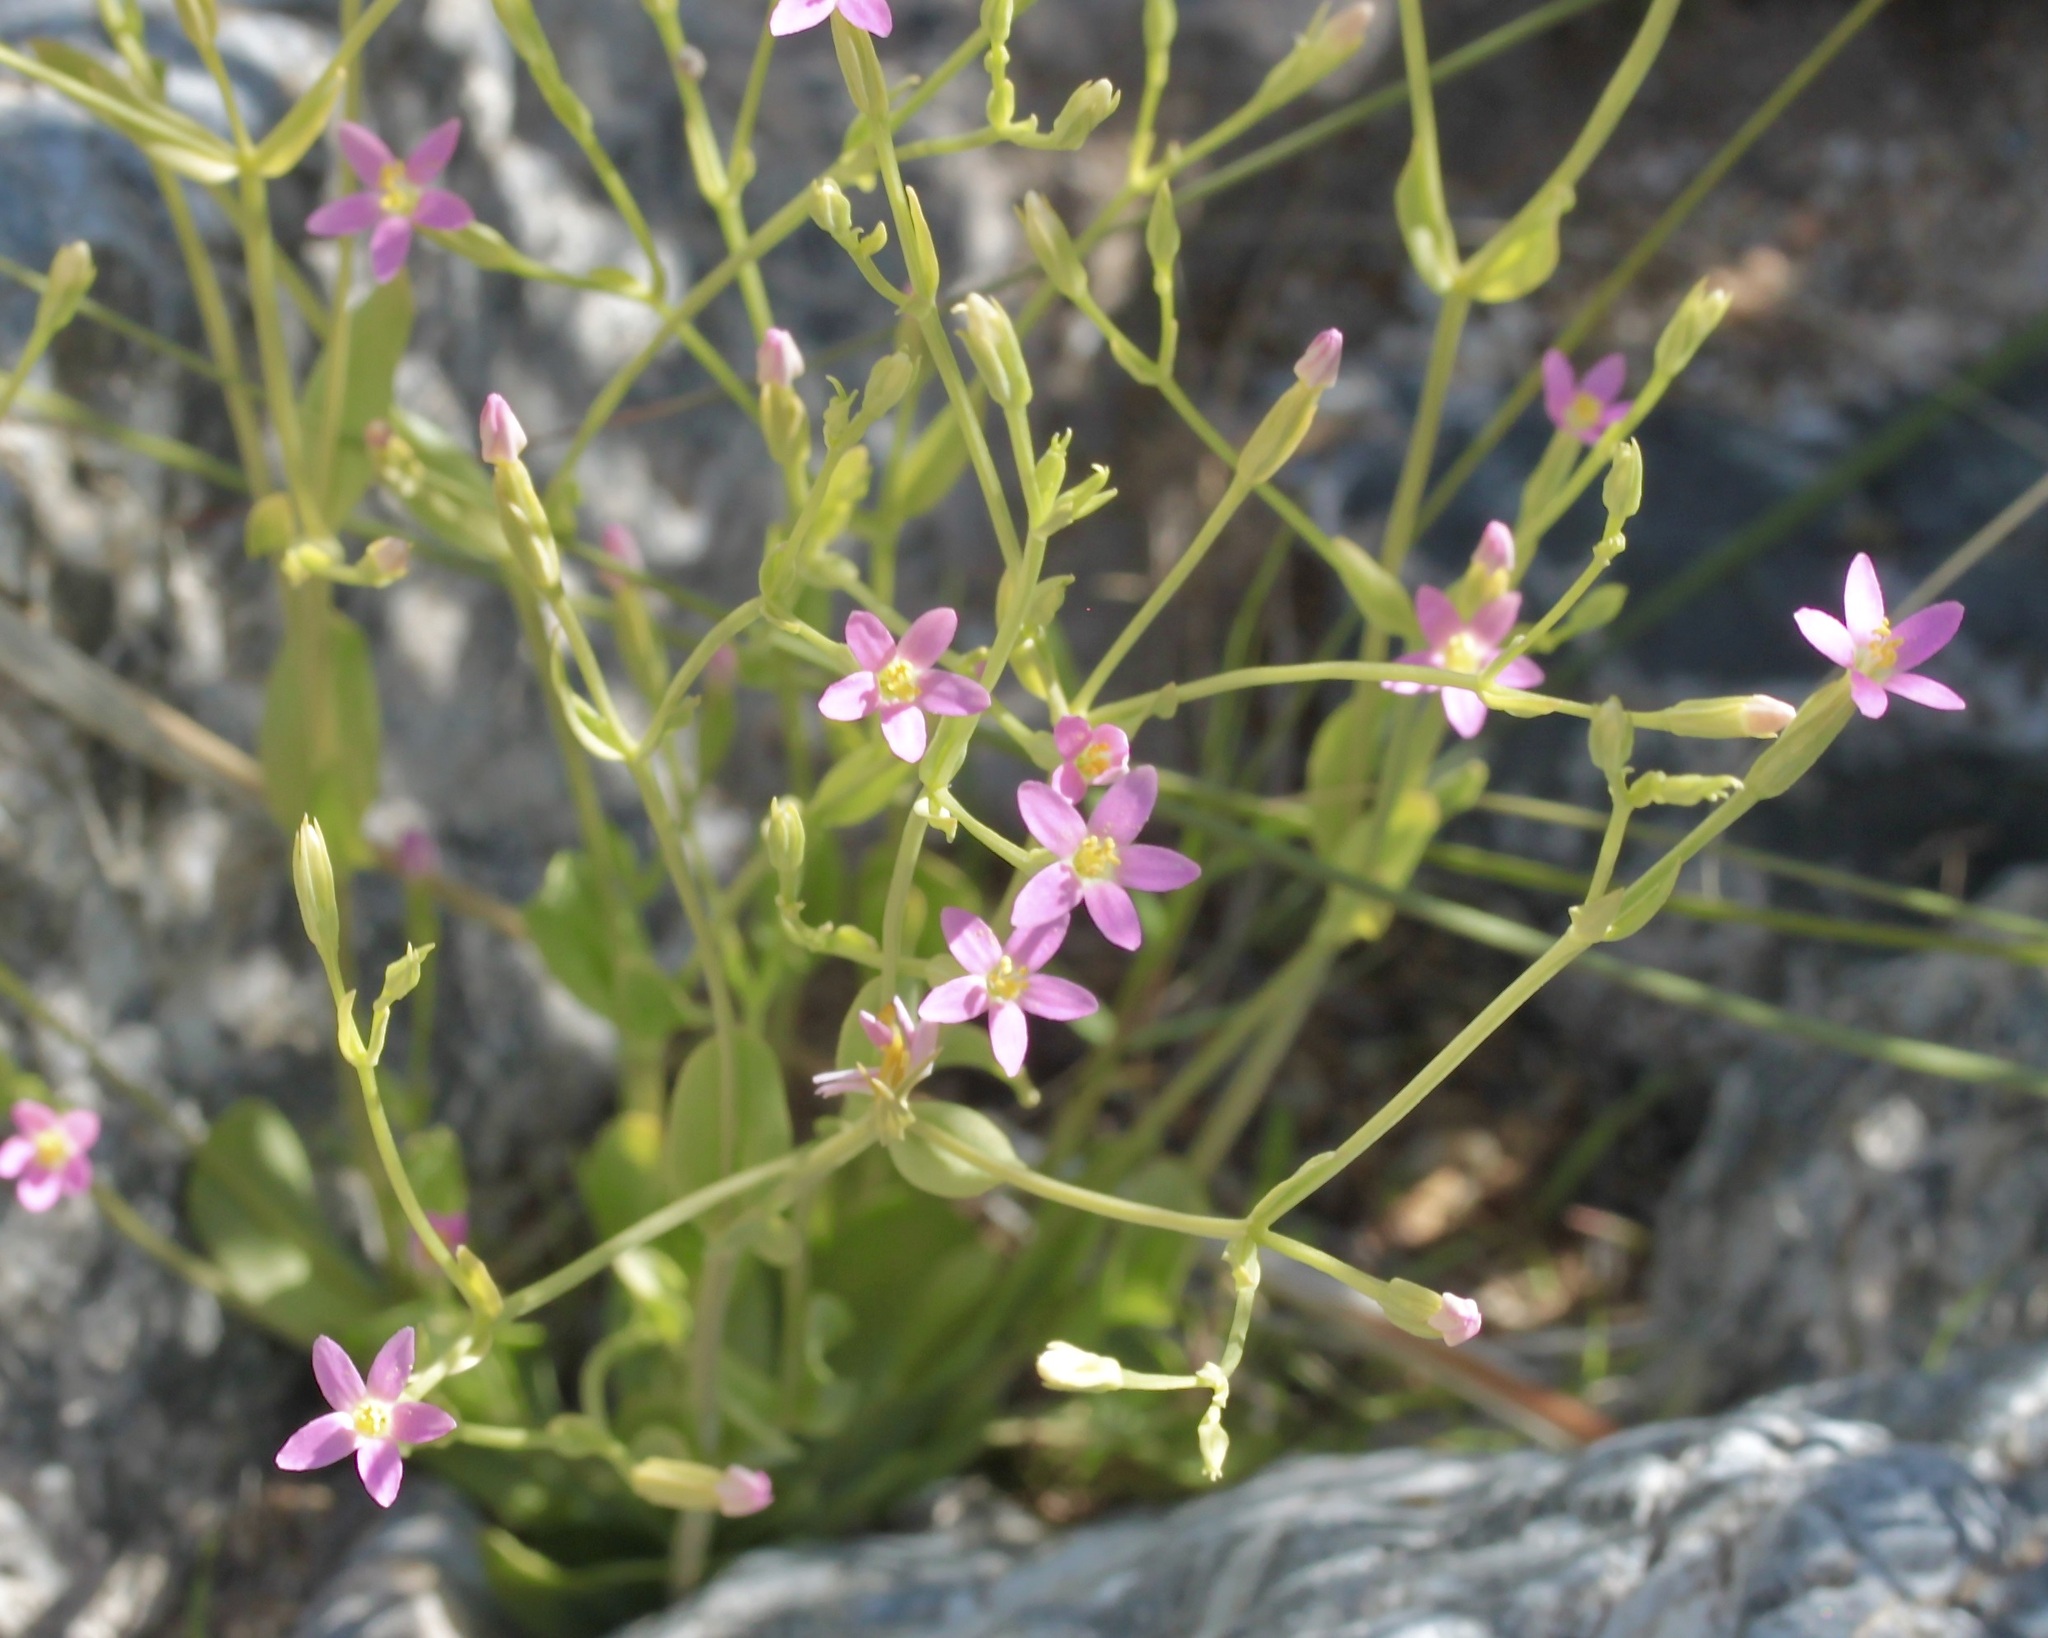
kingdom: Plantae
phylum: Tracheophyta
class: Magnoliopsida
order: Gentianales
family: Gentianaceae
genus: Zeltnera
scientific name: Zeltnera nudicaulis
